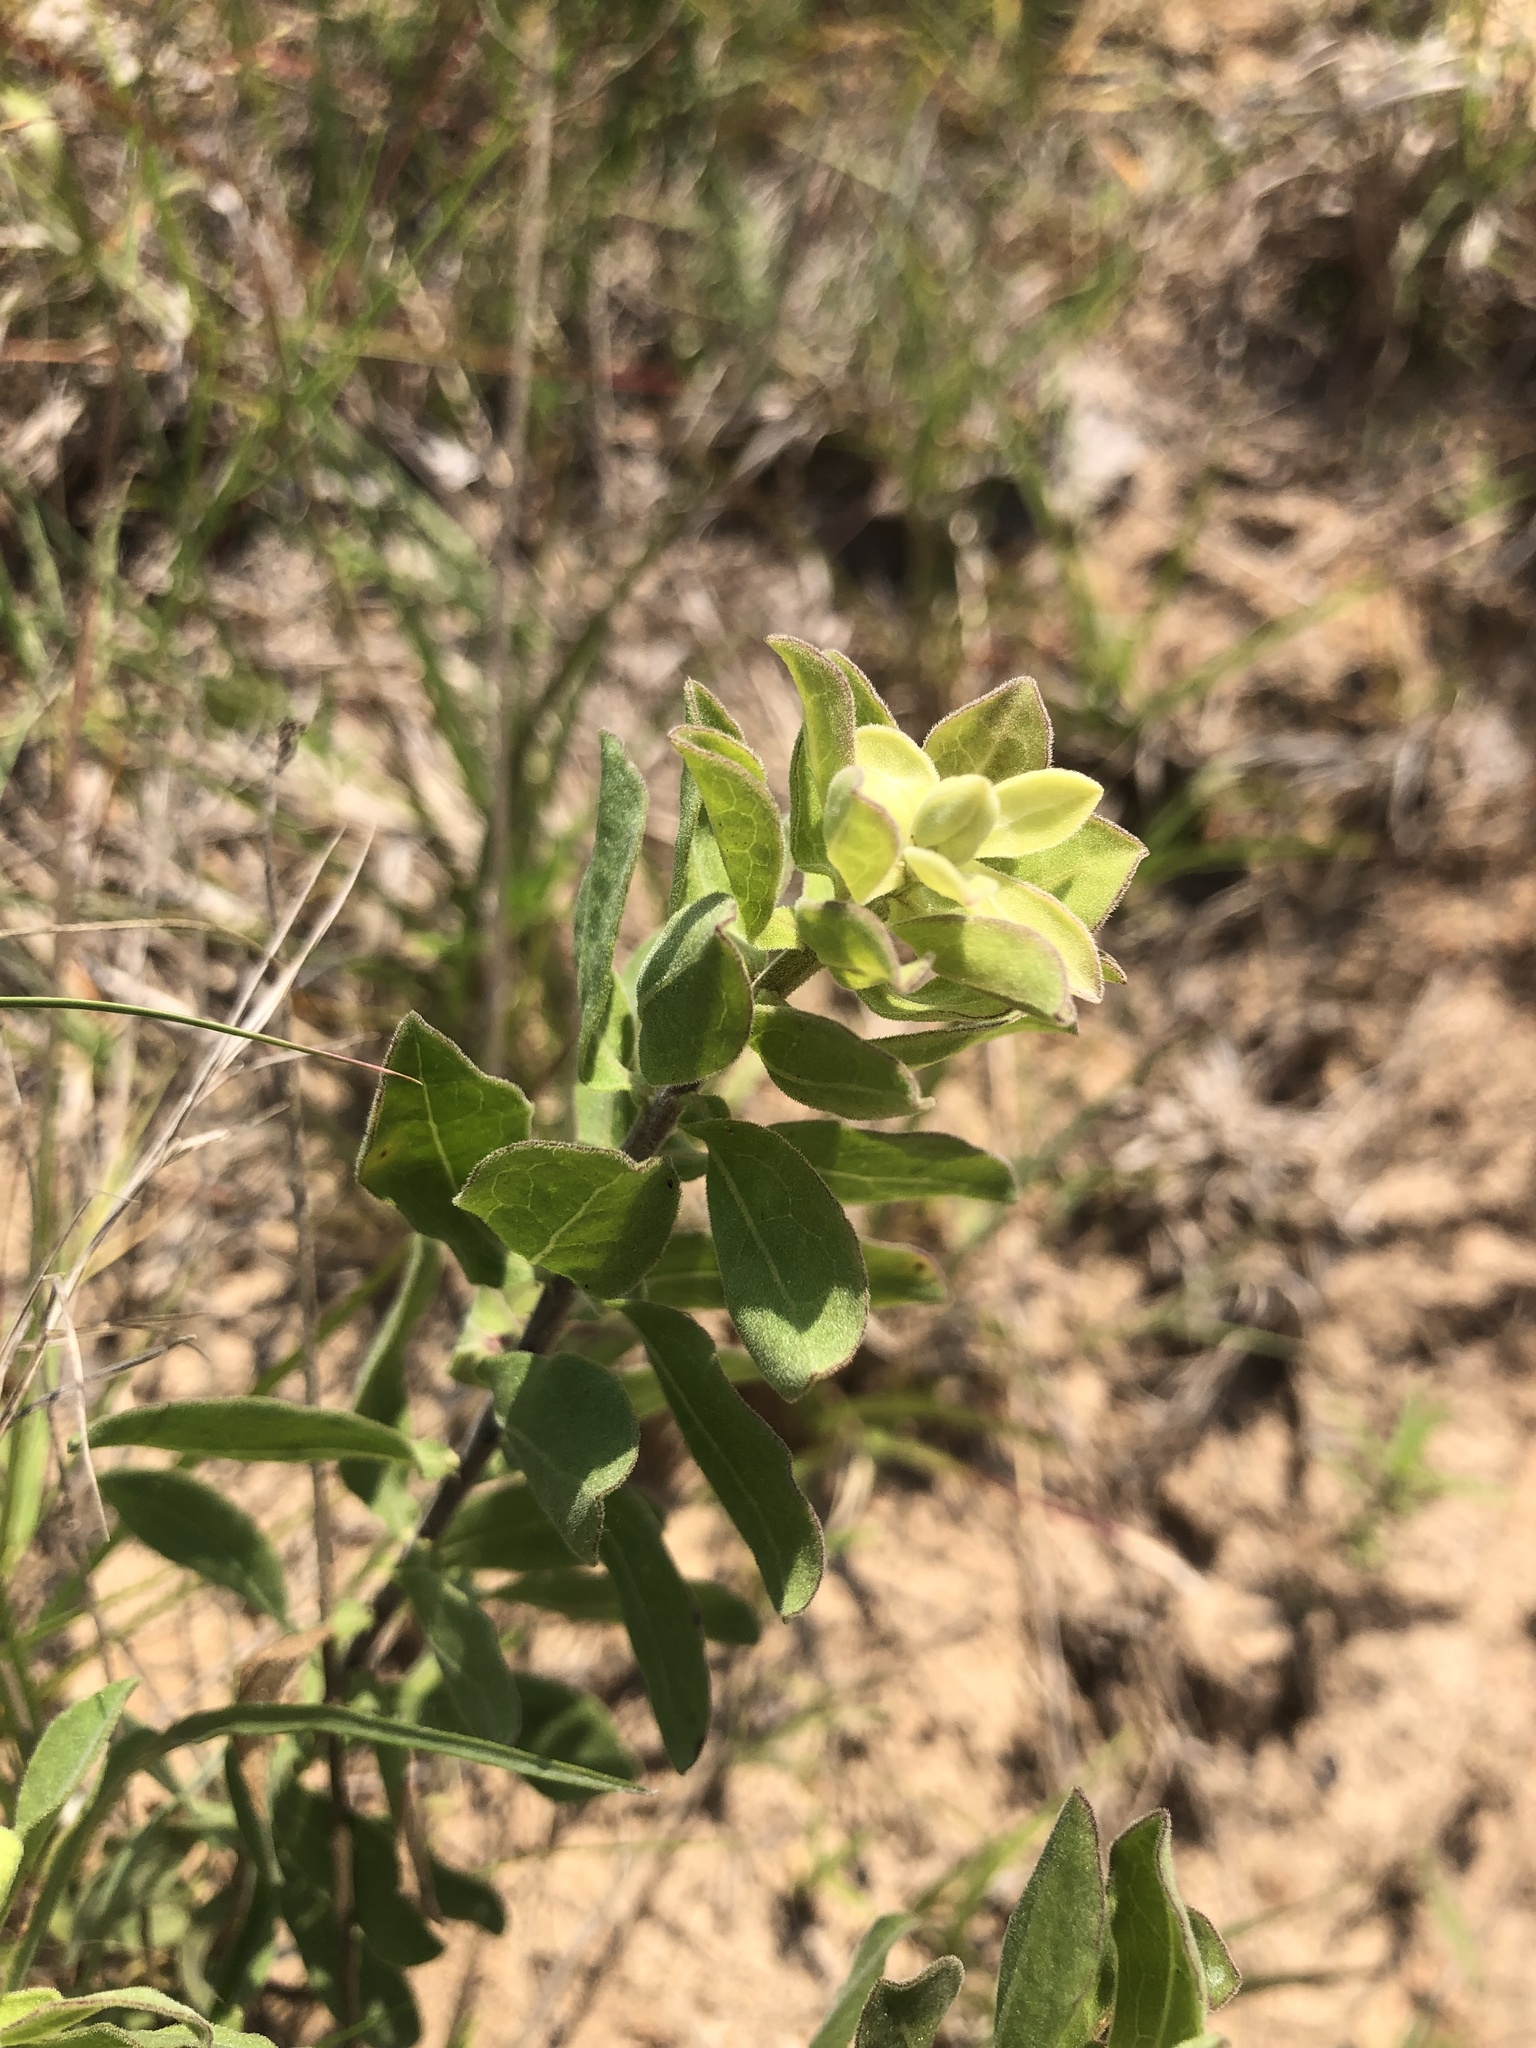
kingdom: Plantae
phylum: Tracheophyta
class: Magnoliopsida
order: Asterales
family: Asteraceae
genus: Sericocarpus
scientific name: Sericocarpus tortifolius
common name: Dixie aster
